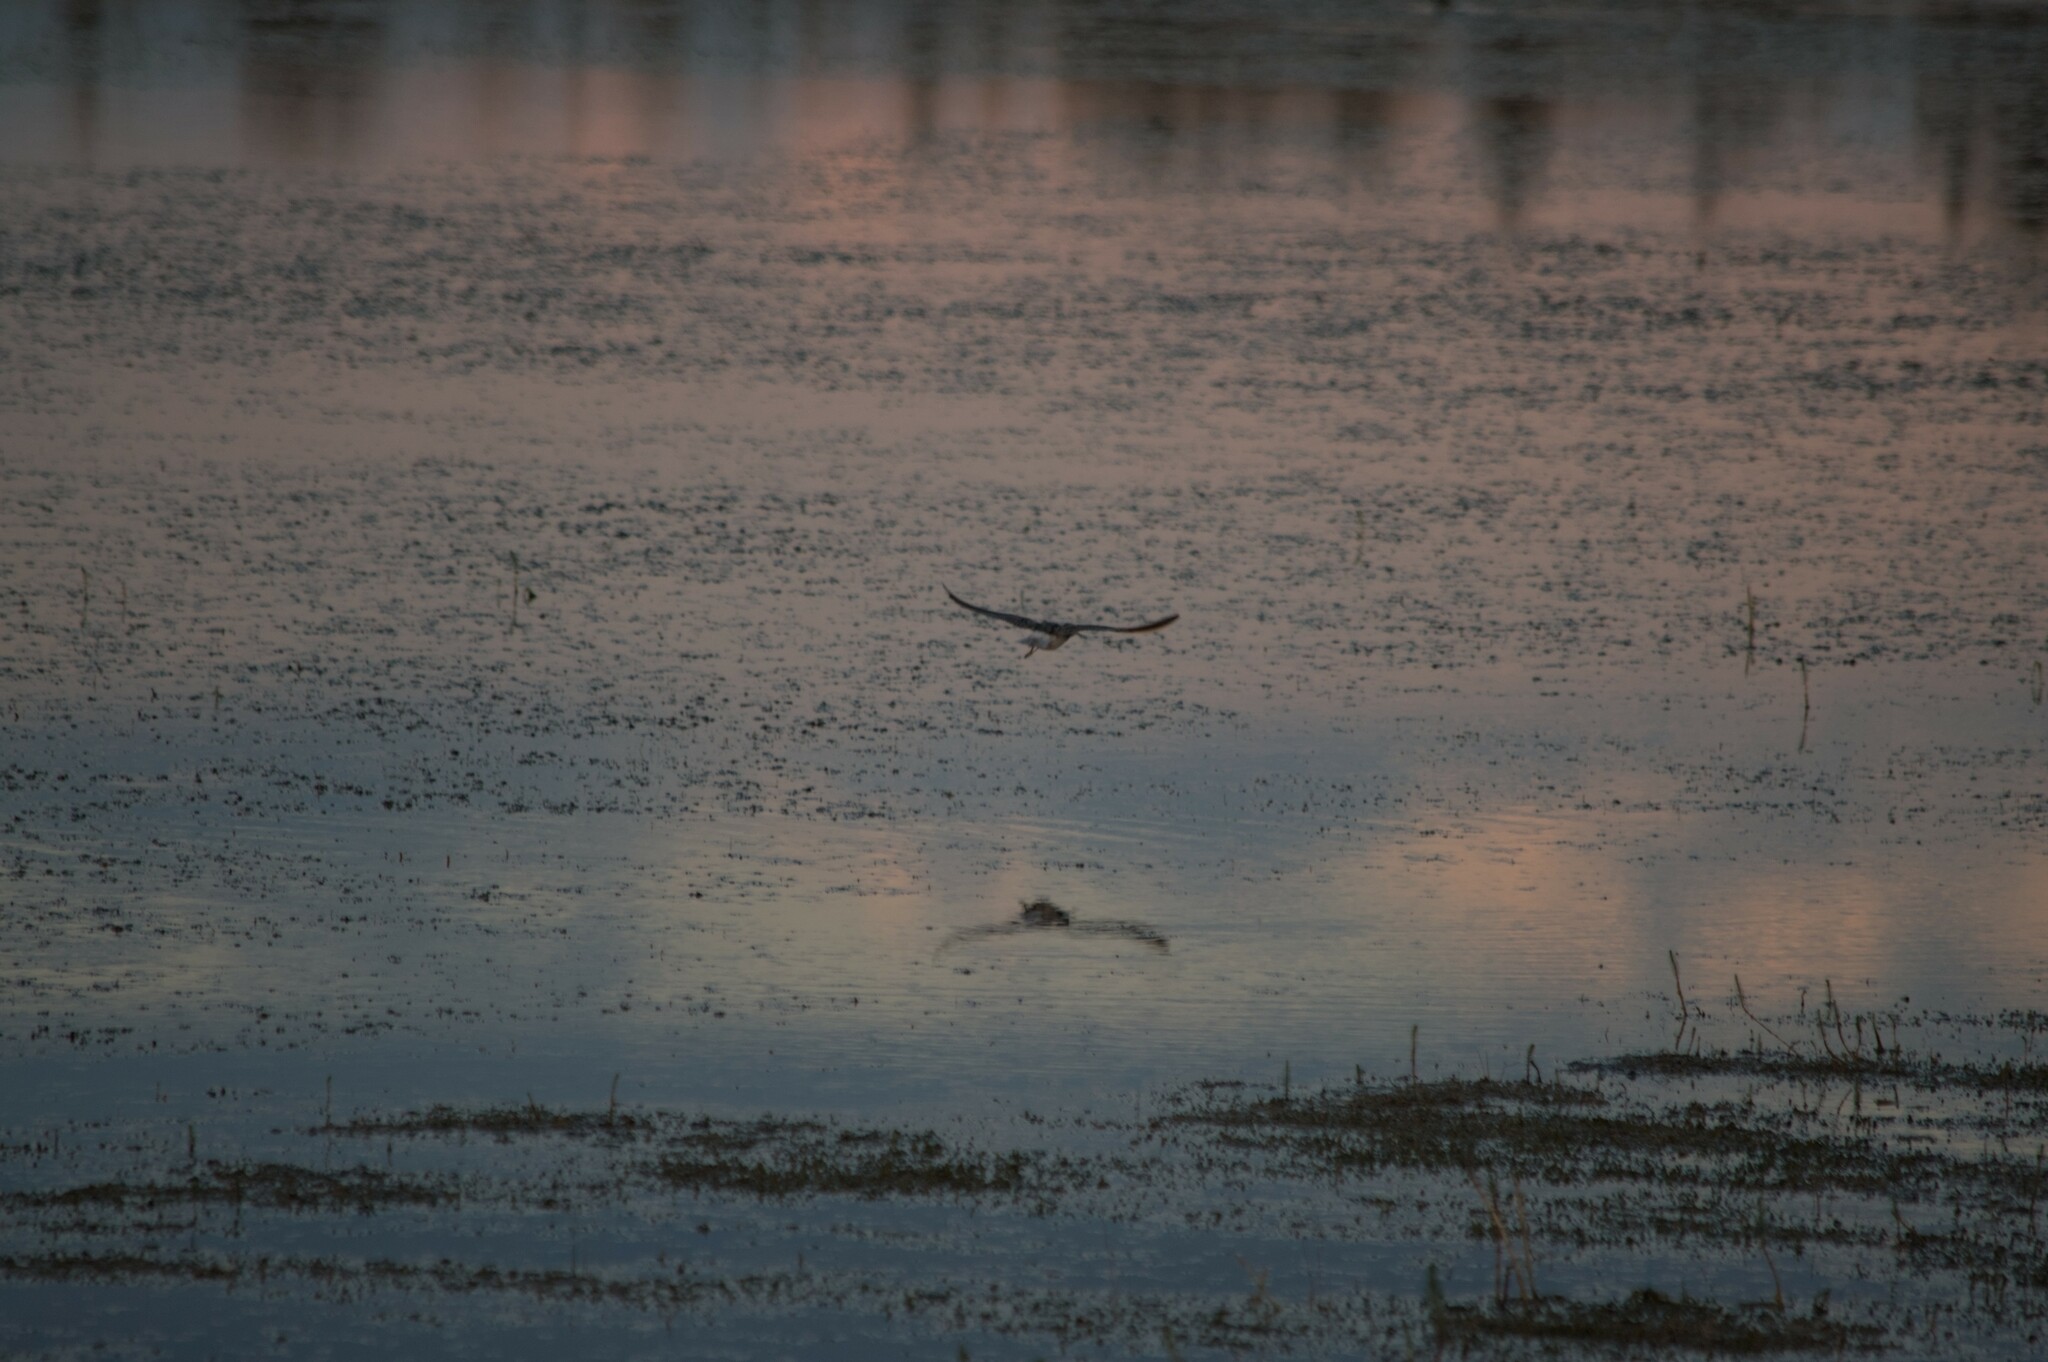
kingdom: Animalia
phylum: Chordata
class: Aves
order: Charadriiformes
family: Scolopacidae
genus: Tringa
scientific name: Tringa flavipes
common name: Lesser yellowlegs
